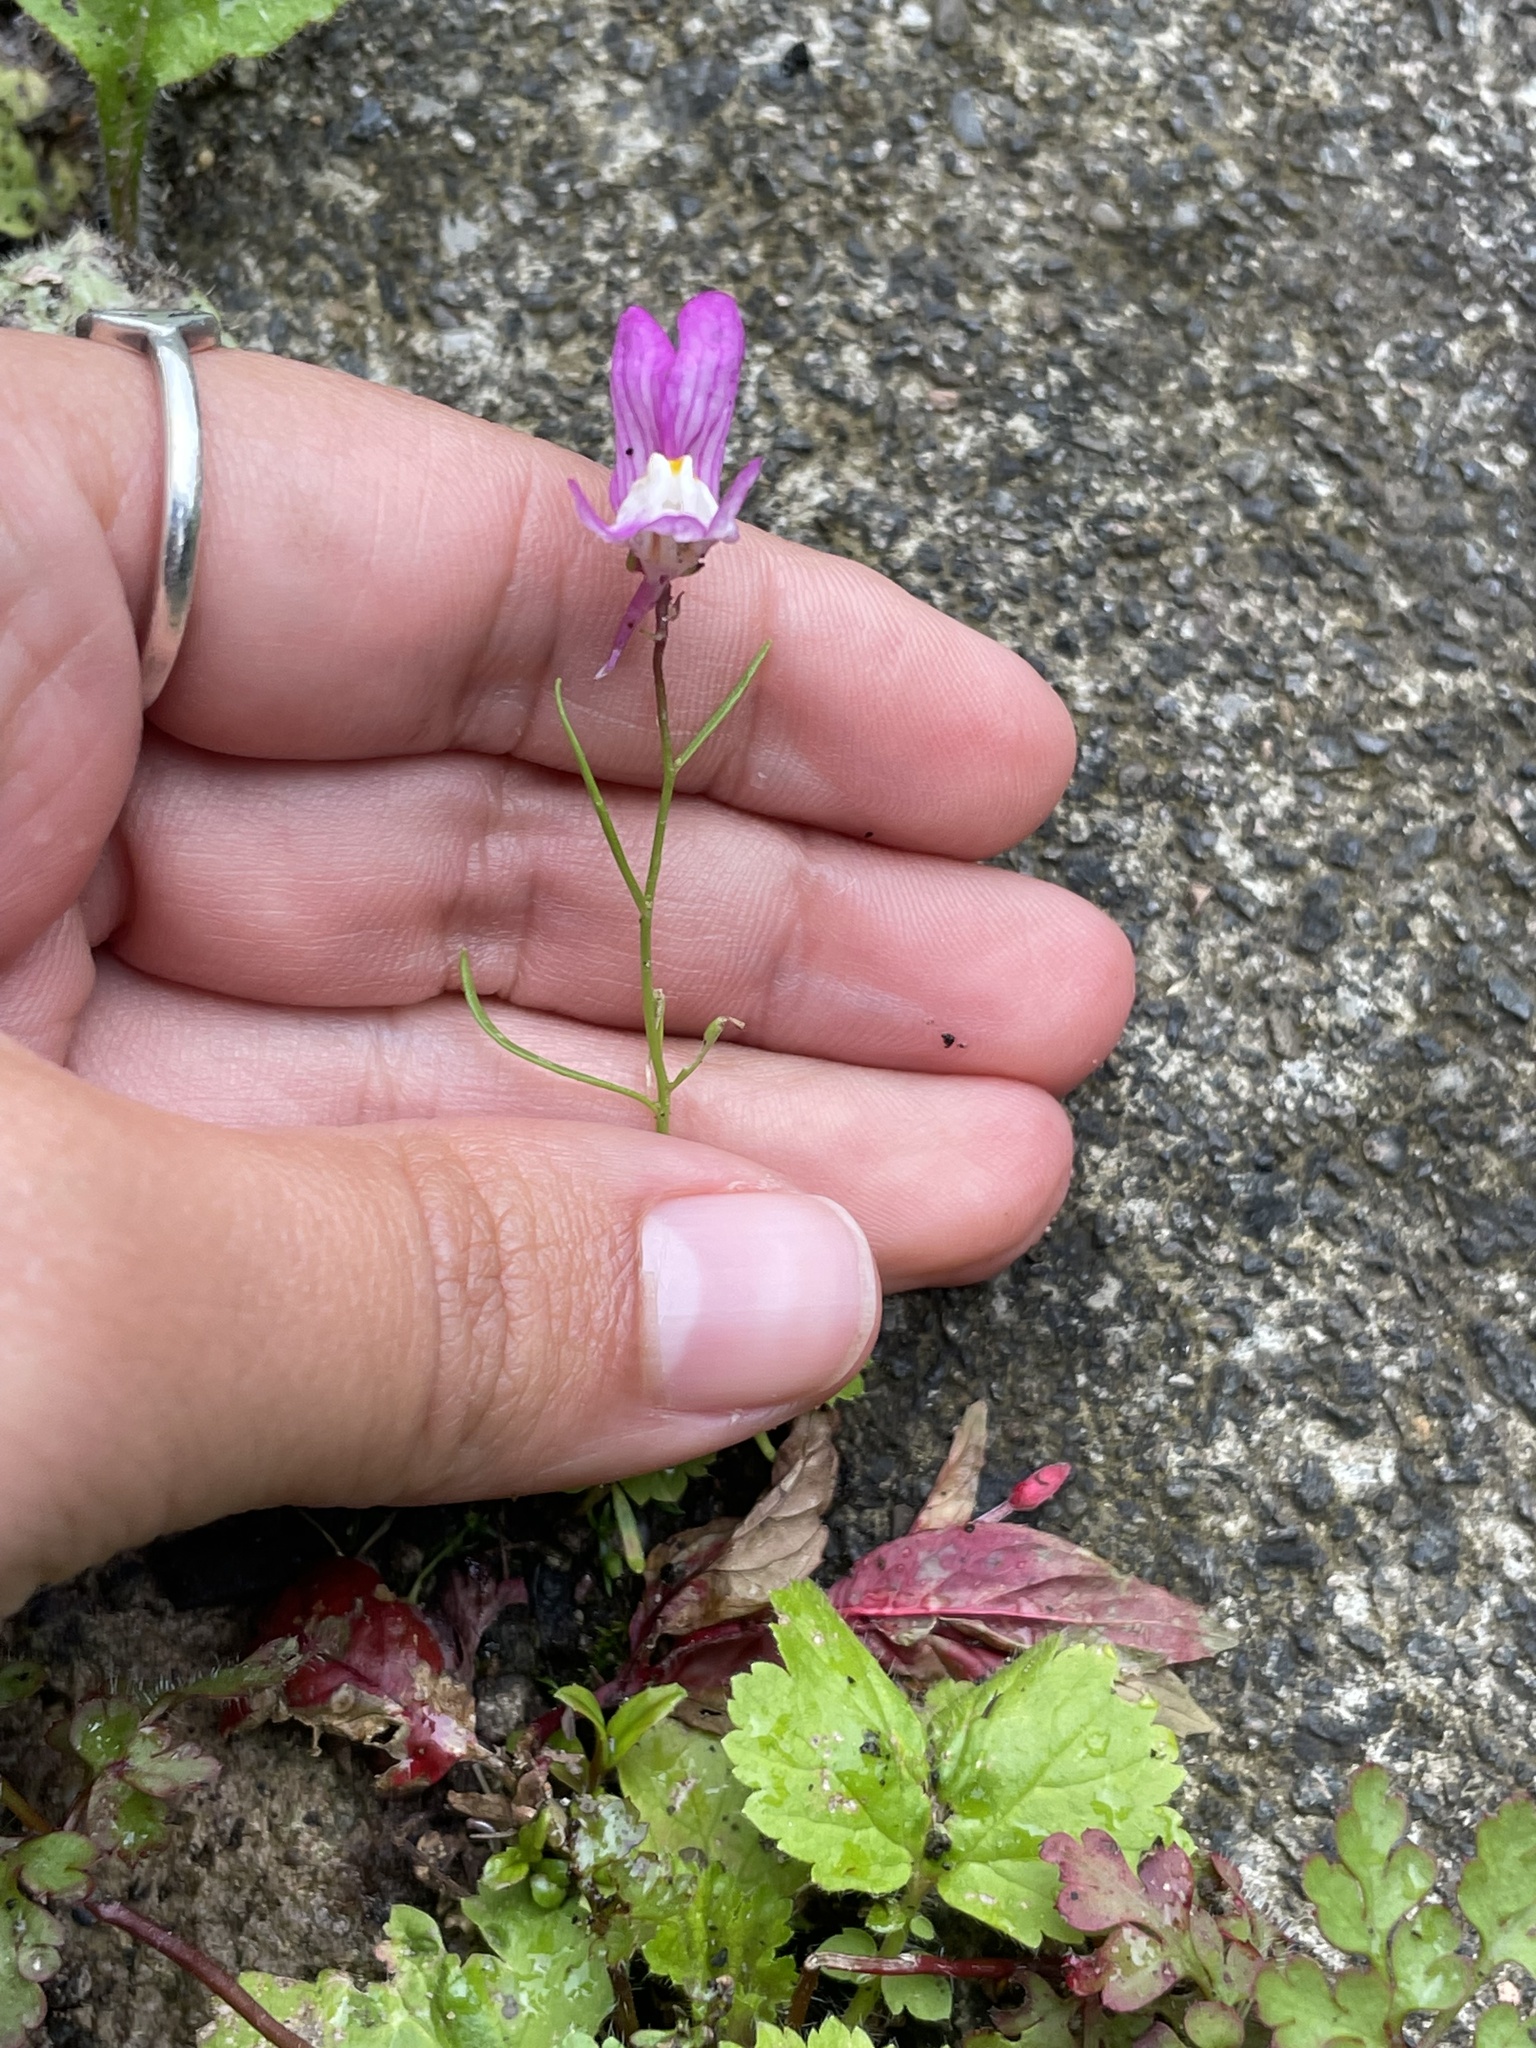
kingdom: Plantae
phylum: Tracheophyta
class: Magnoliopsida
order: Lamiales
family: Plantaginaceae
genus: Linaria
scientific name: Linaria maroccana
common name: Moroccan toadflax
